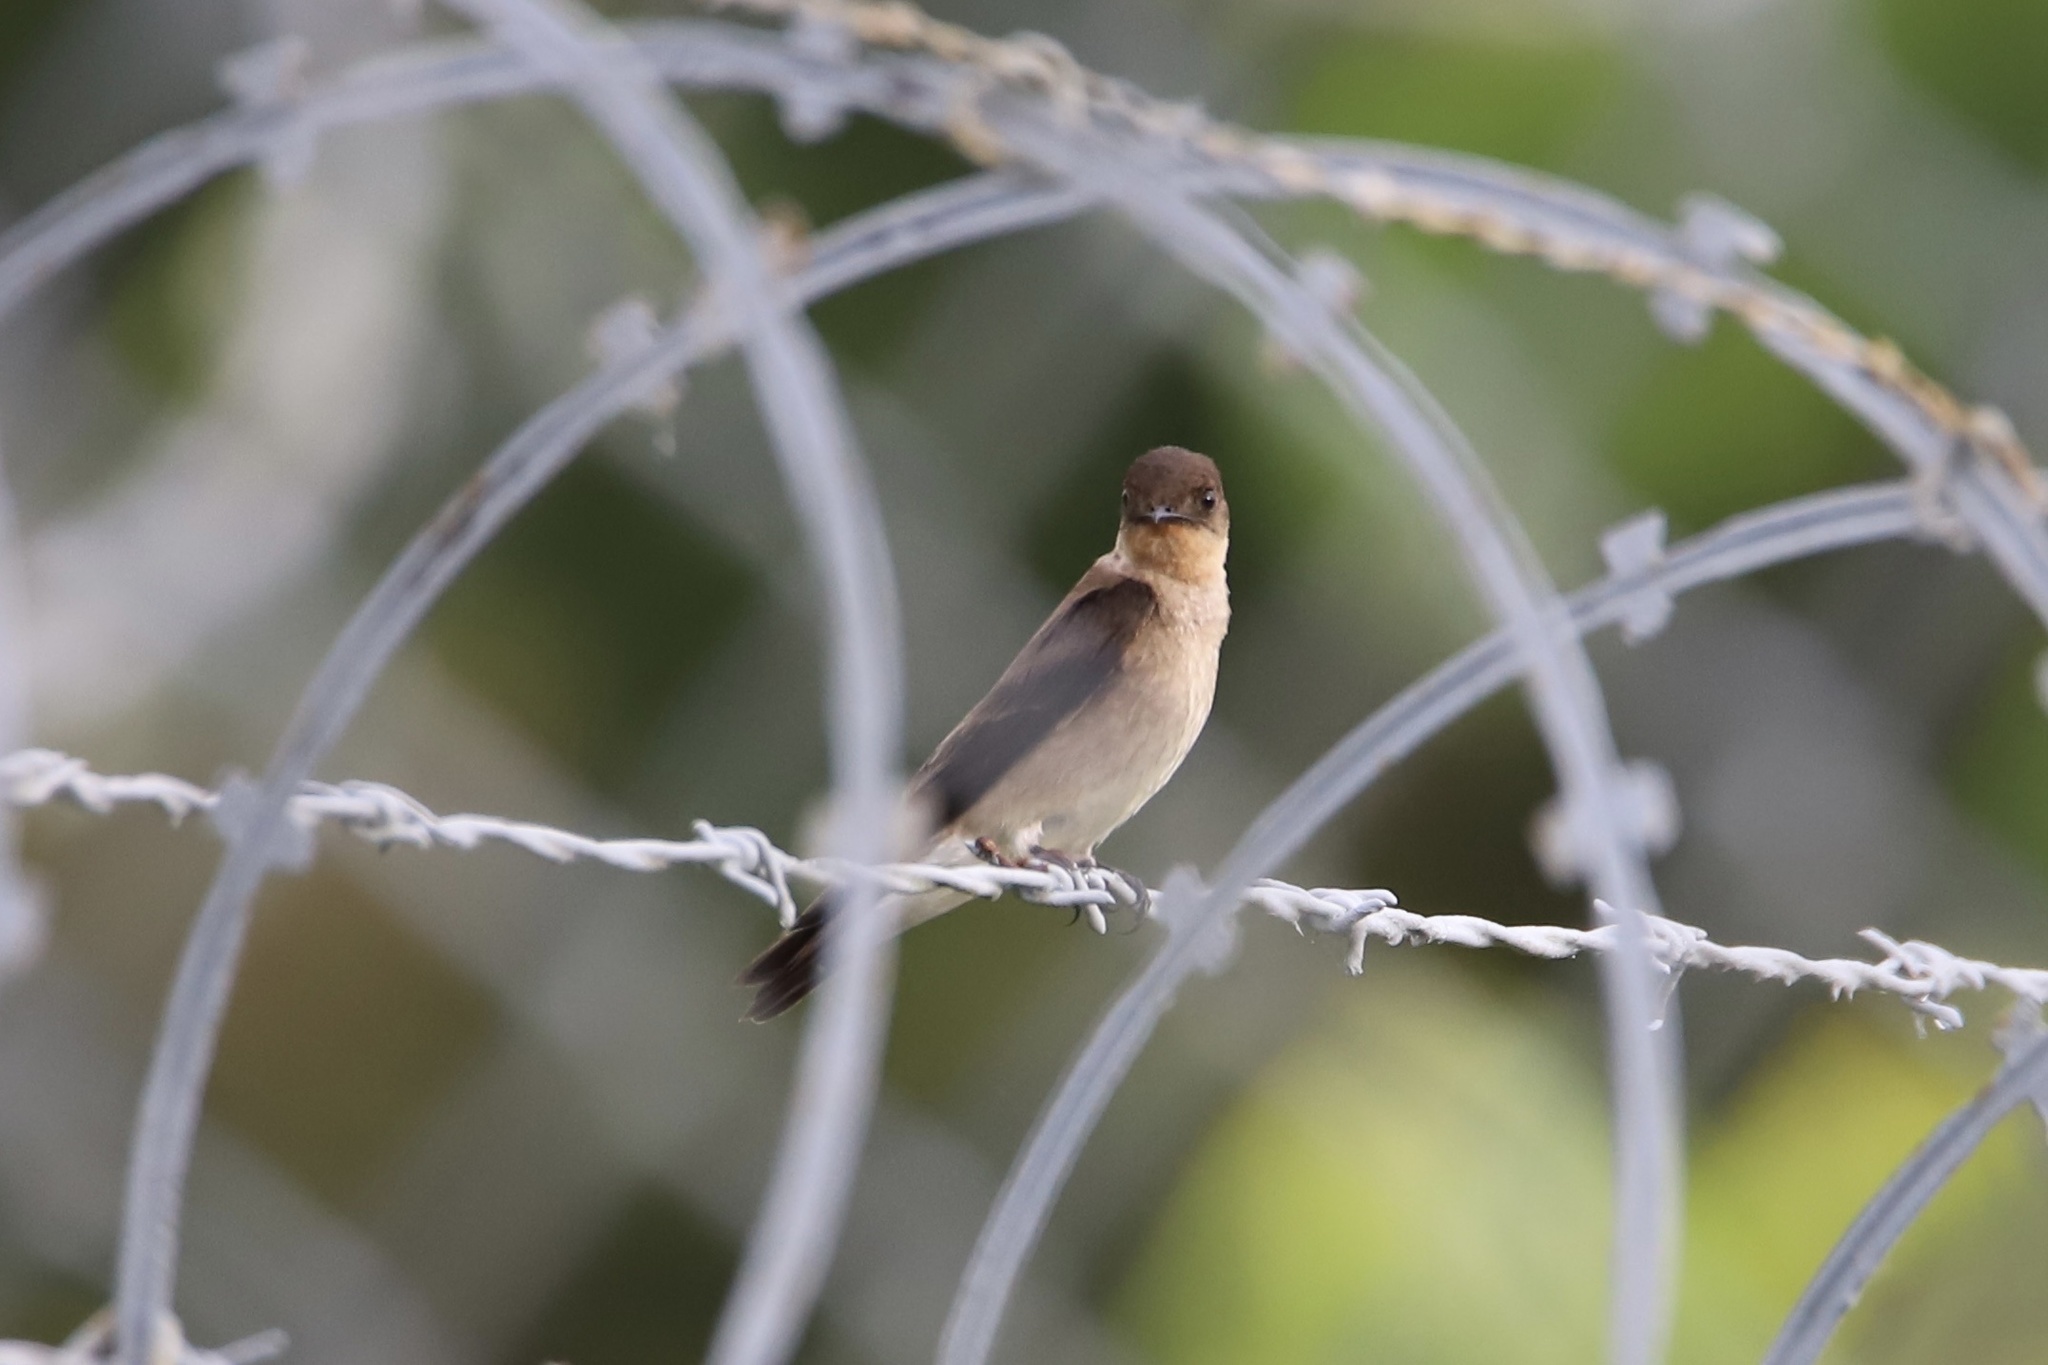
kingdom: Animalia
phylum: Chordata
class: Aves
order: Passeriformes
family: Hirundinidae
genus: Stelgidopteryx
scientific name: Stelgidopteryx ruficollis
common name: Southern rough-winged swallow
